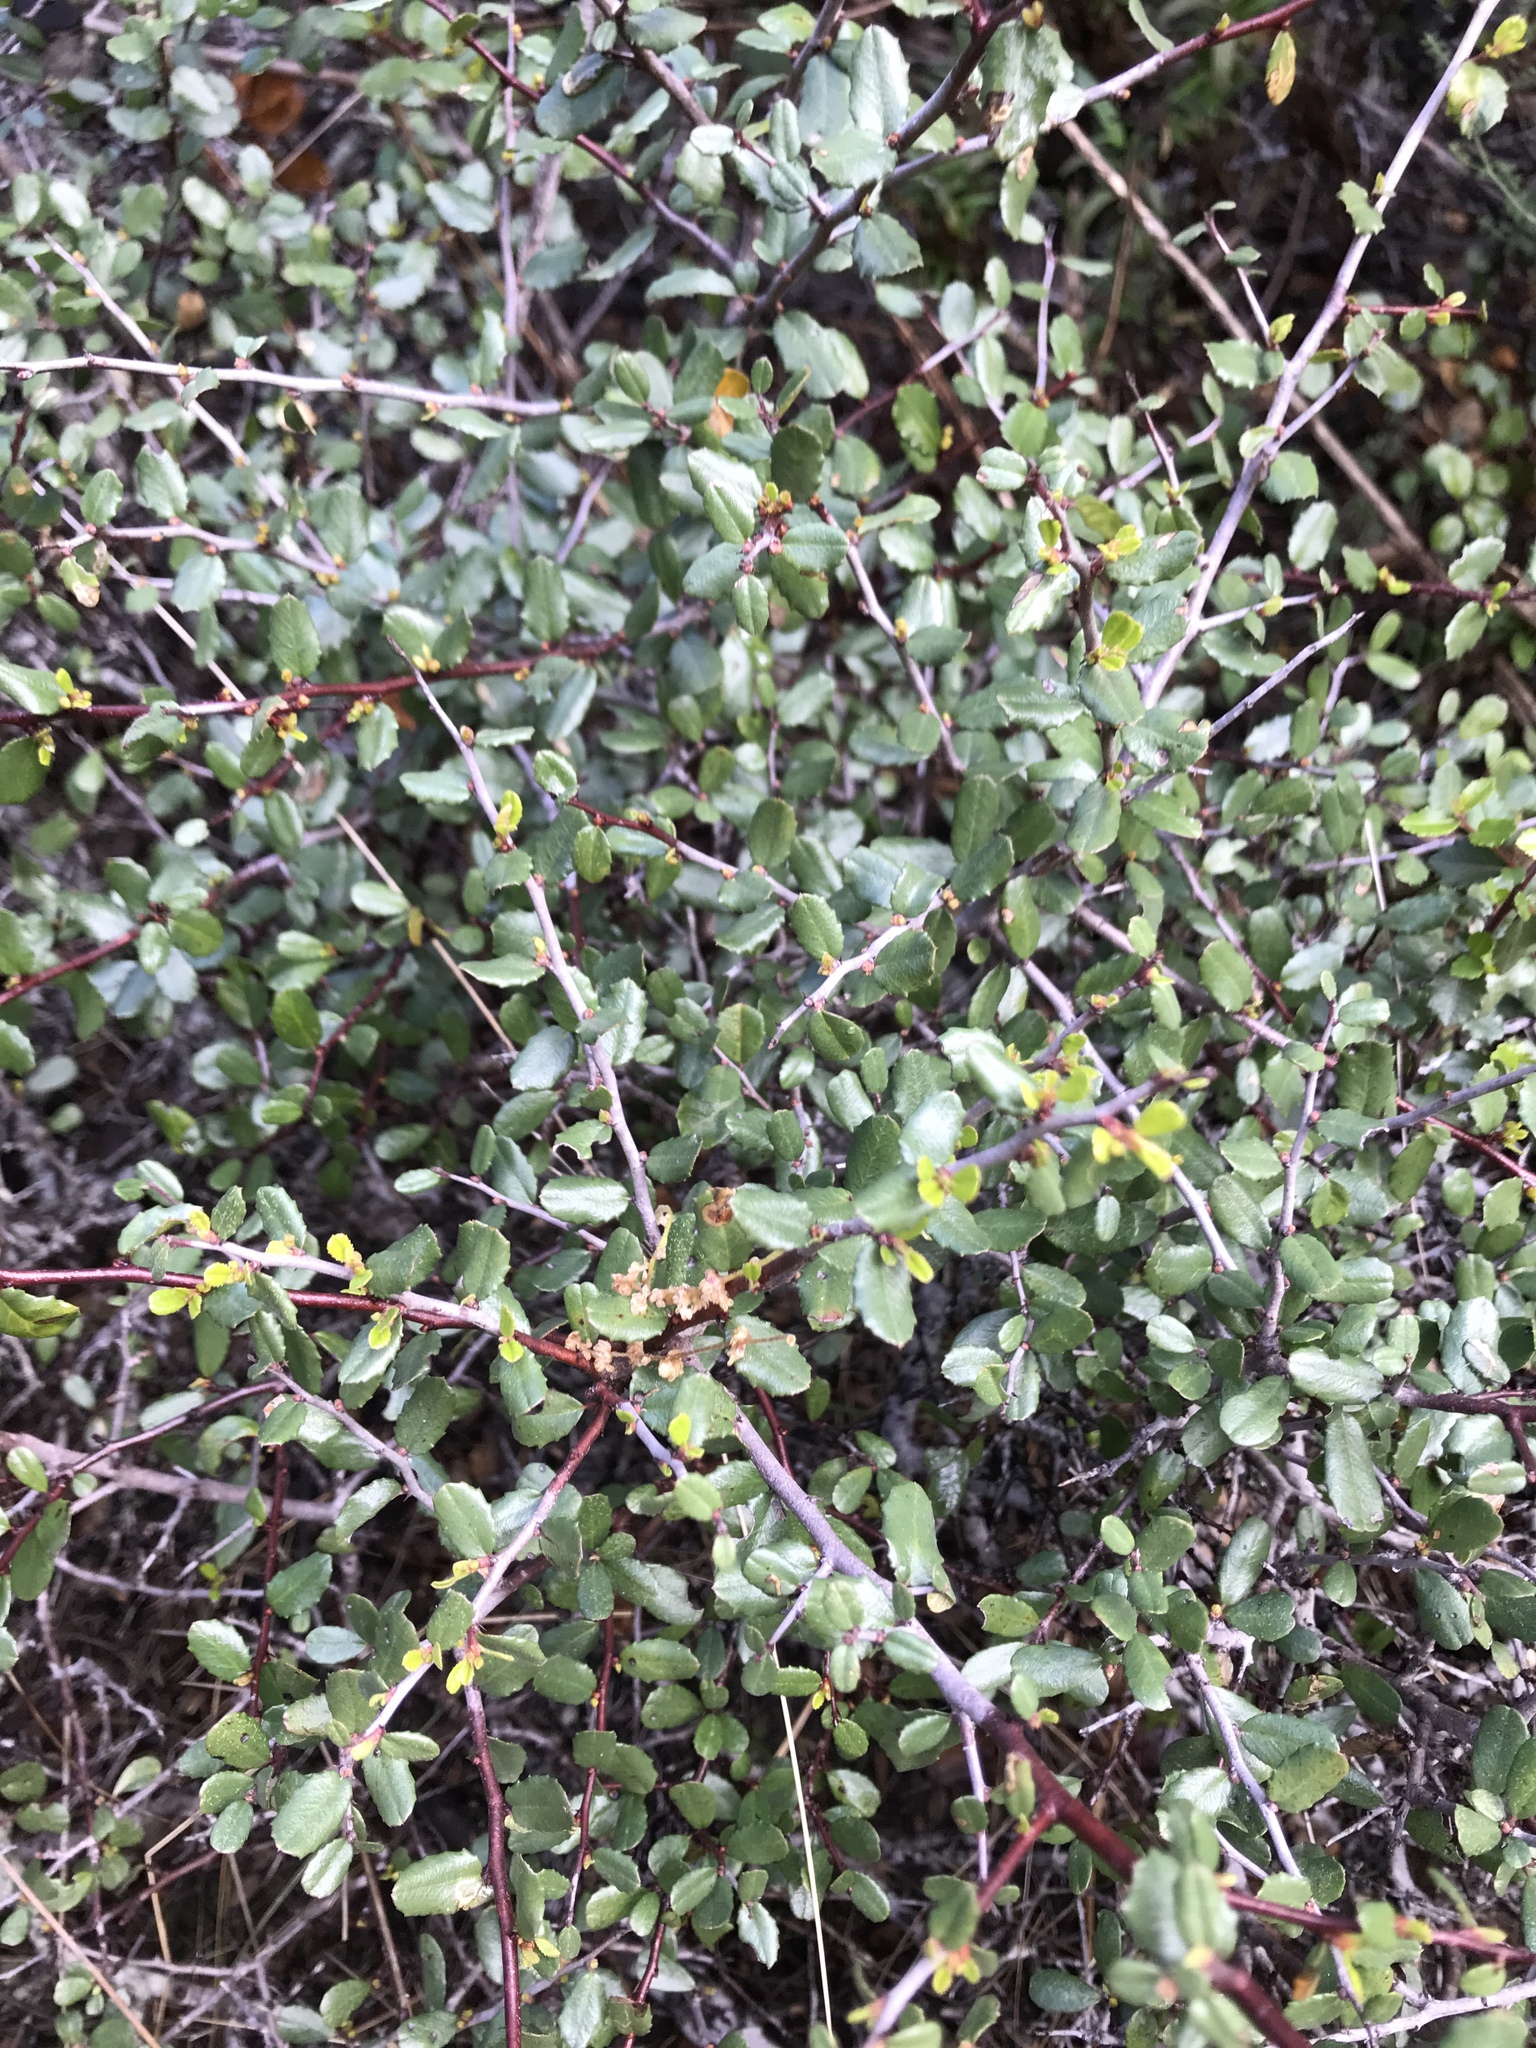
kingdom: Plantae
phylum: Tracheophyta
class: Magnoliopsida
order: Rosales
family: Rhamnaceae
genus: Endotropis
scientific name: Endotropis crocea
